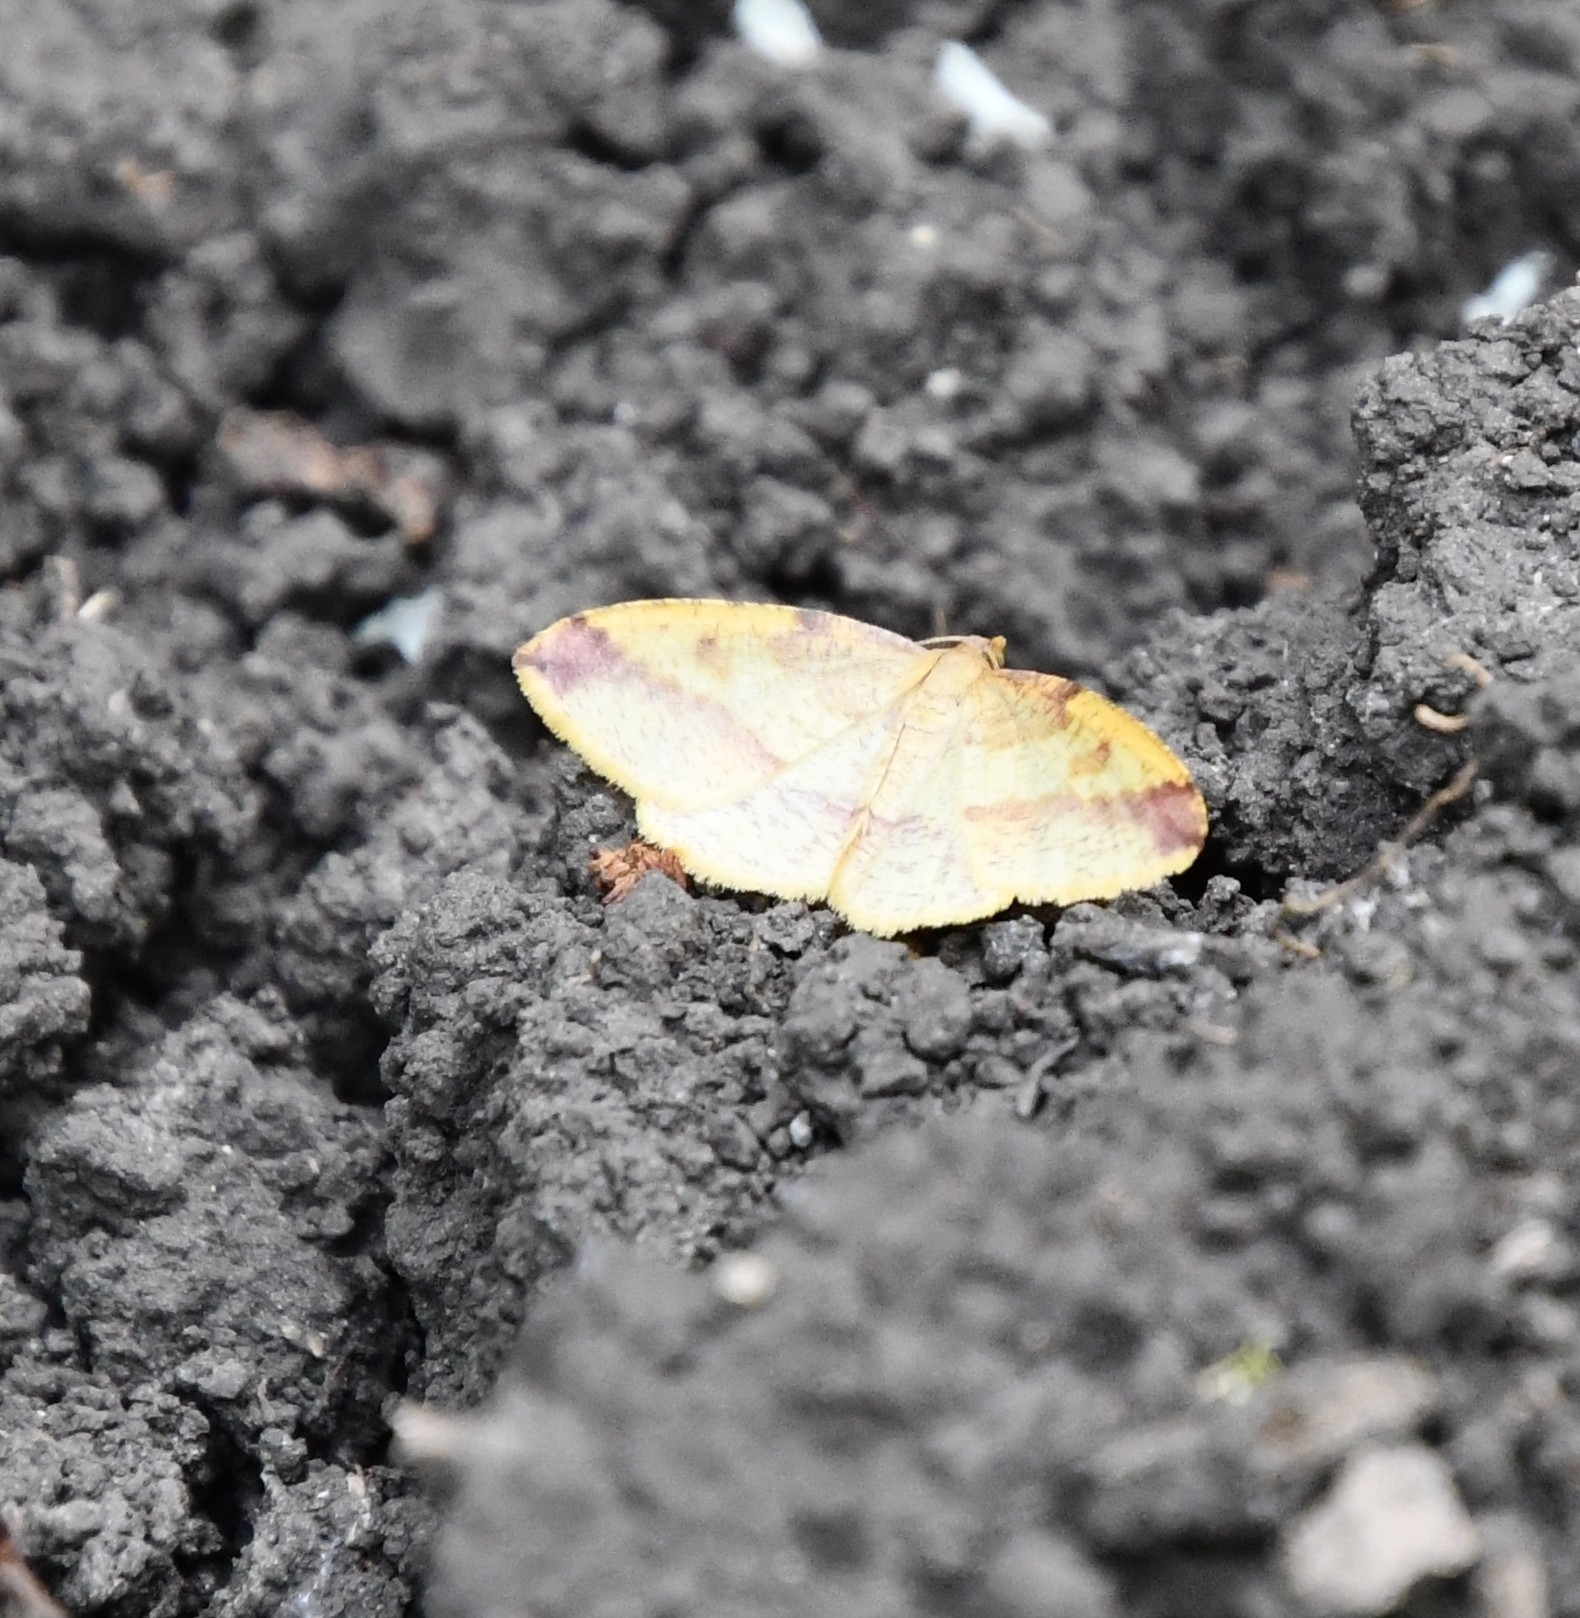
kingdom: Animalia
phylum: Arthropoda
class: Insecta
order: Lepidoptera
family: Geometridae
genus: Heterolocha
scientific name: Heterolocha laminaria
